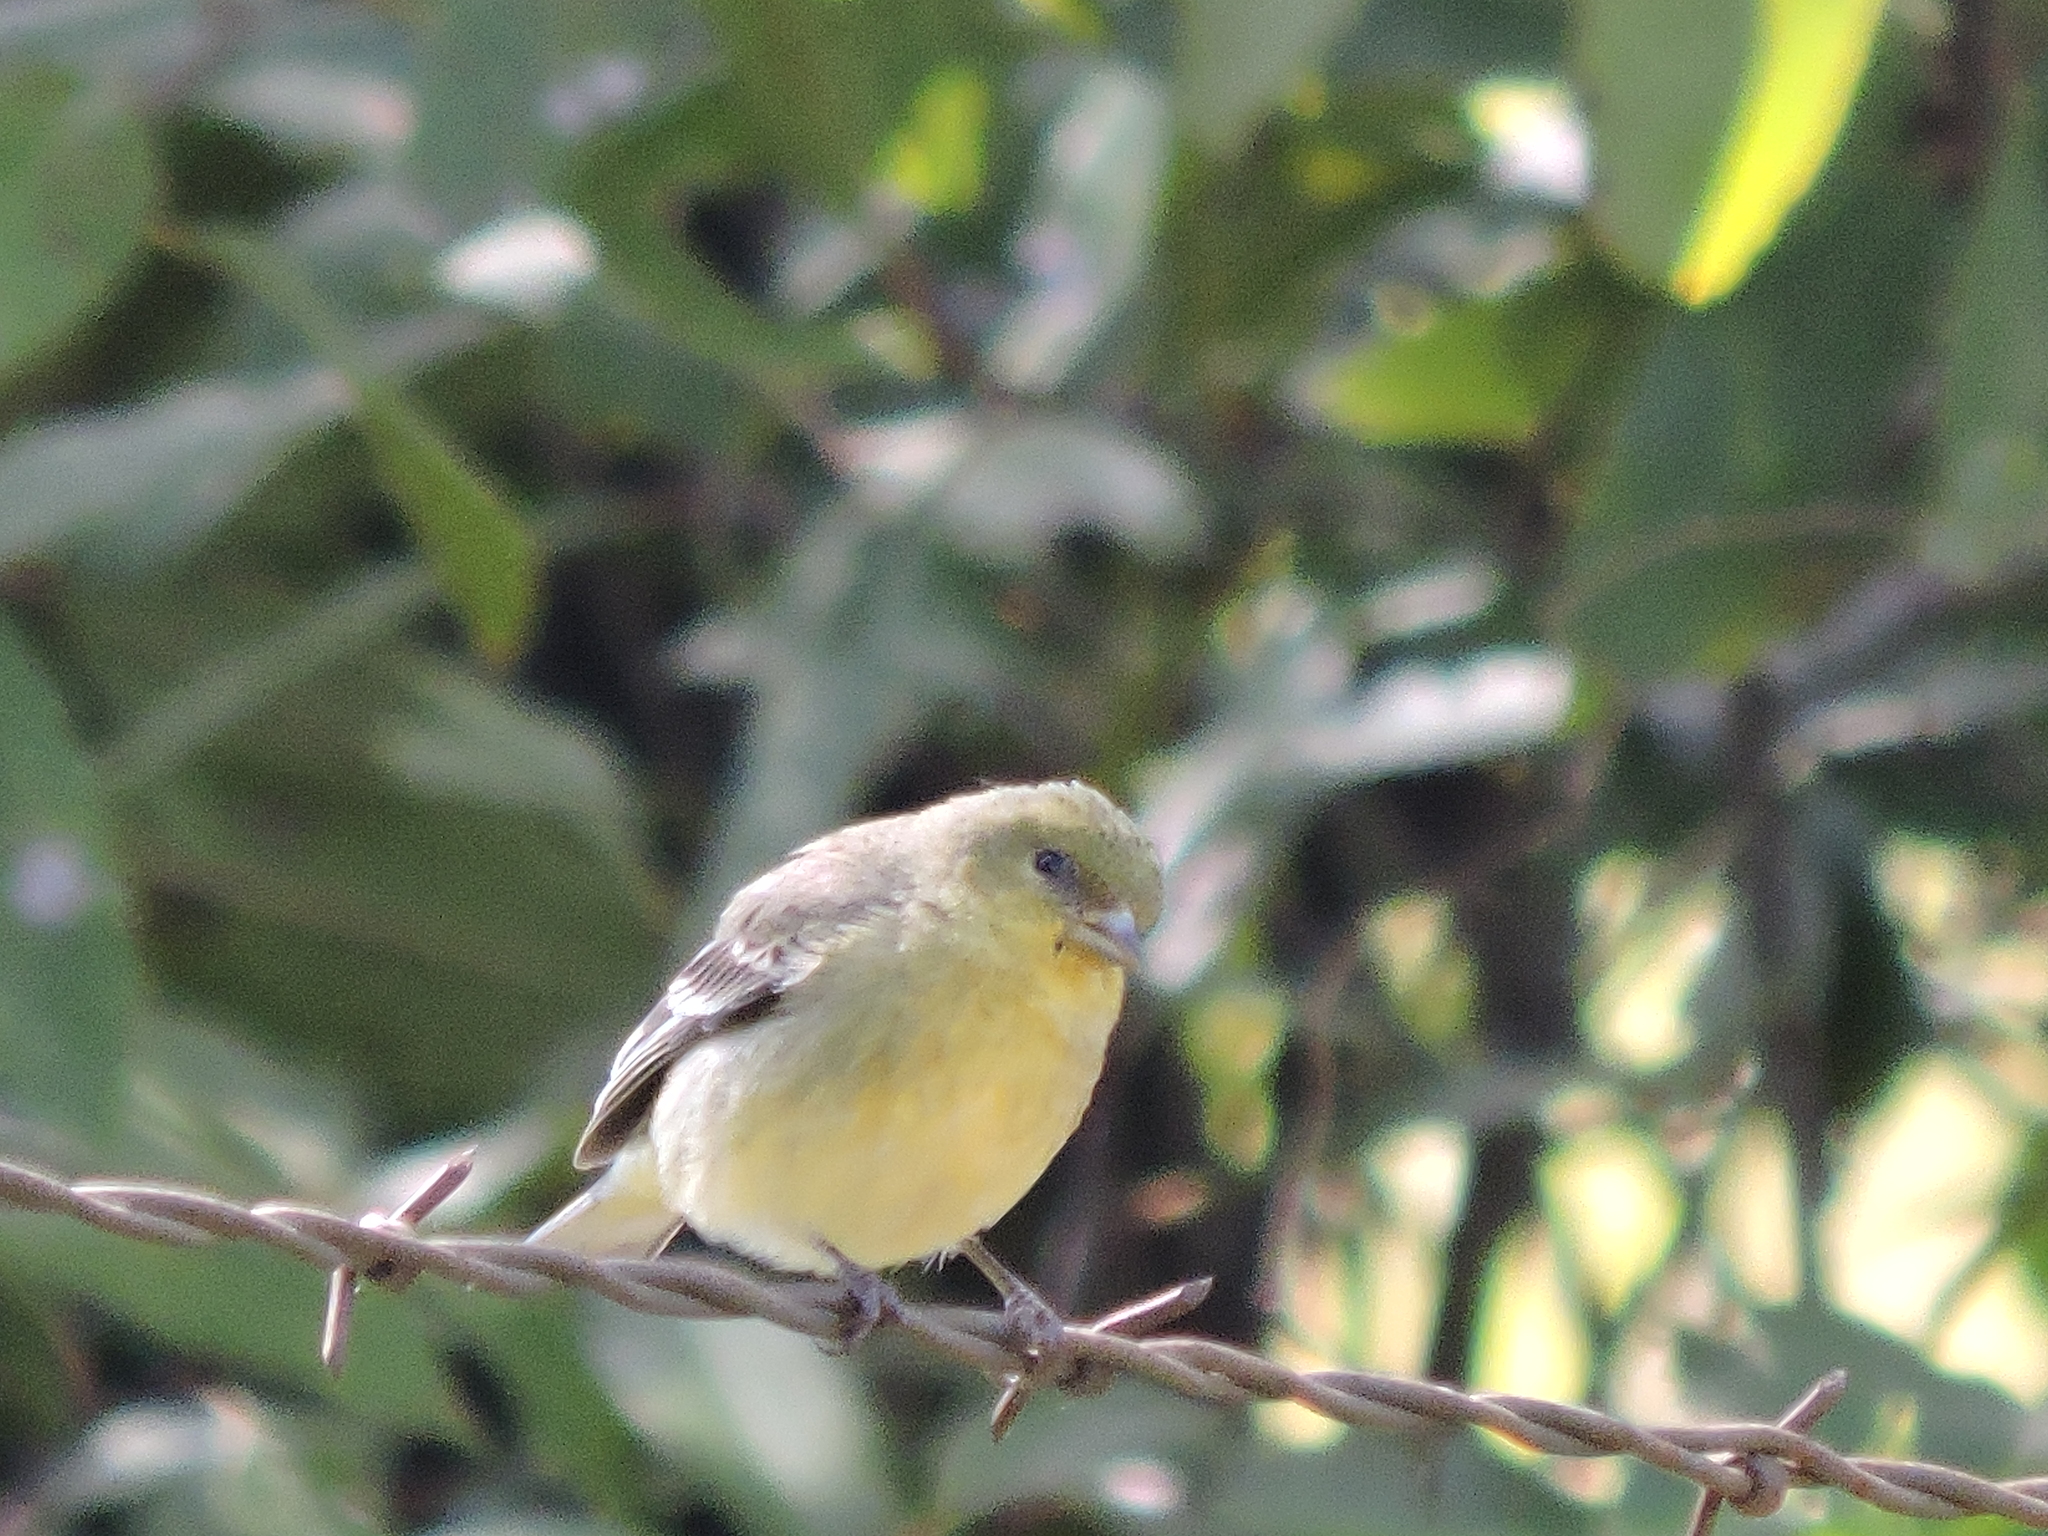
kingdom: Animalia
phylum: Chordata
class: Aves
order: Passeriformes
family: Fringillidae
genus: Spinus
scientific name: Spinus psaltria
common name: Lesser goldfinch
